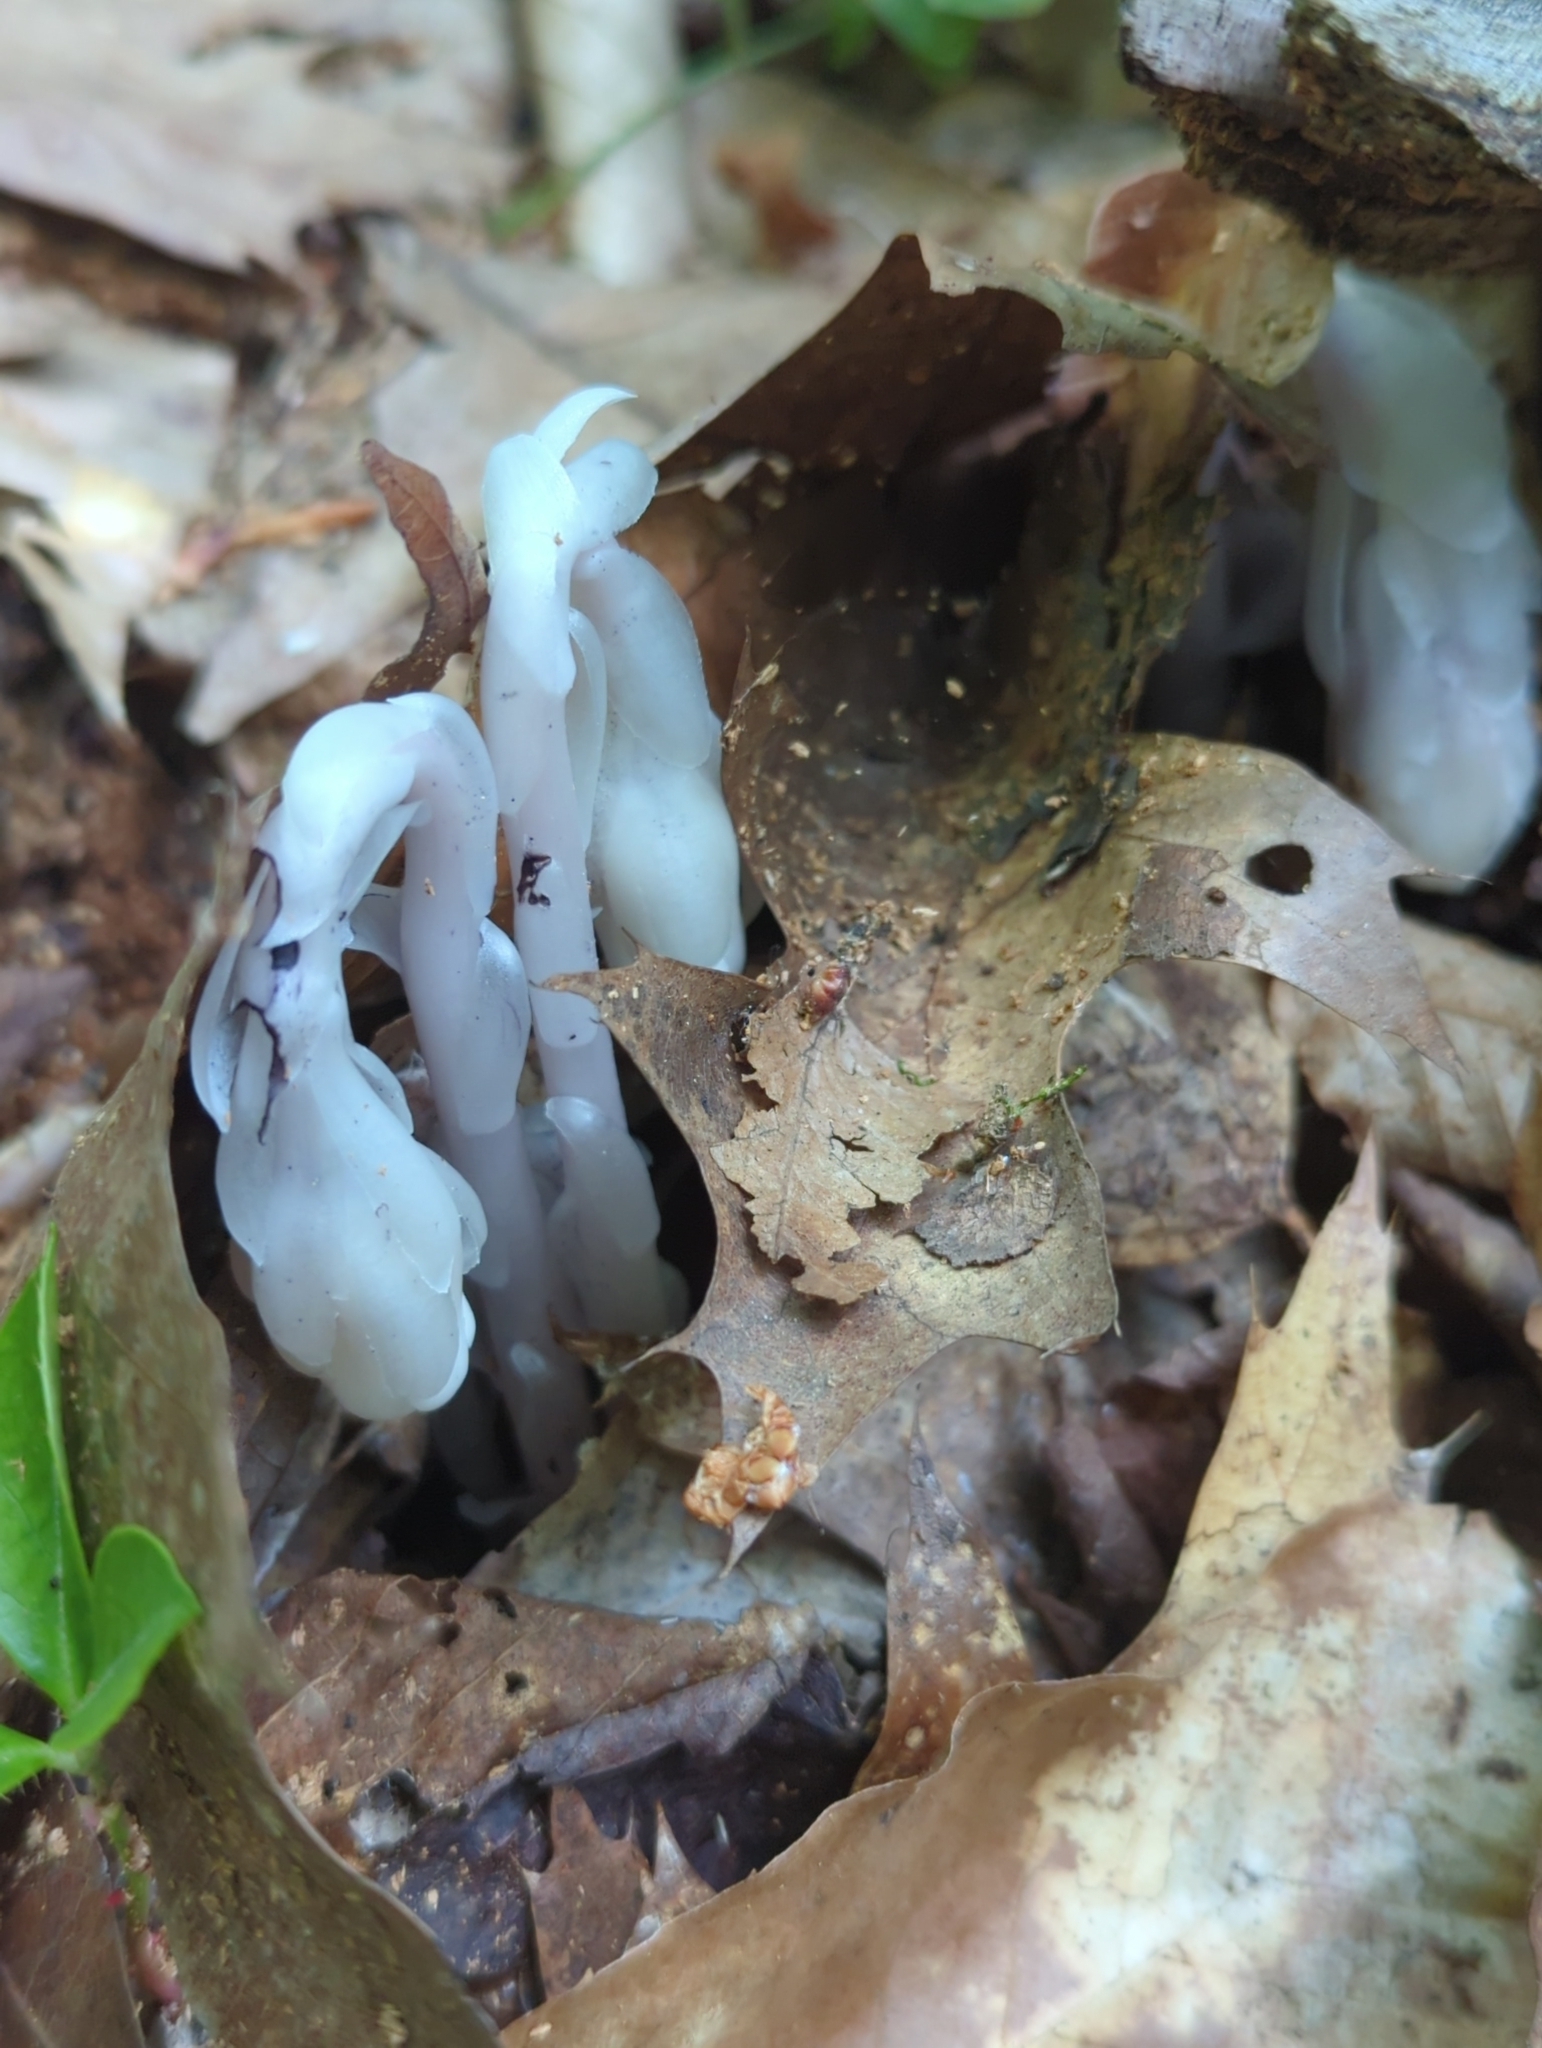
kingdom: Plantae
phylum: Tracheophyta
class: Magnoliopsida
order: Ericales
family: Ericaceae
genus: Monotropa
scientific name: Monotropa uniflora
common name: Convulsion root
